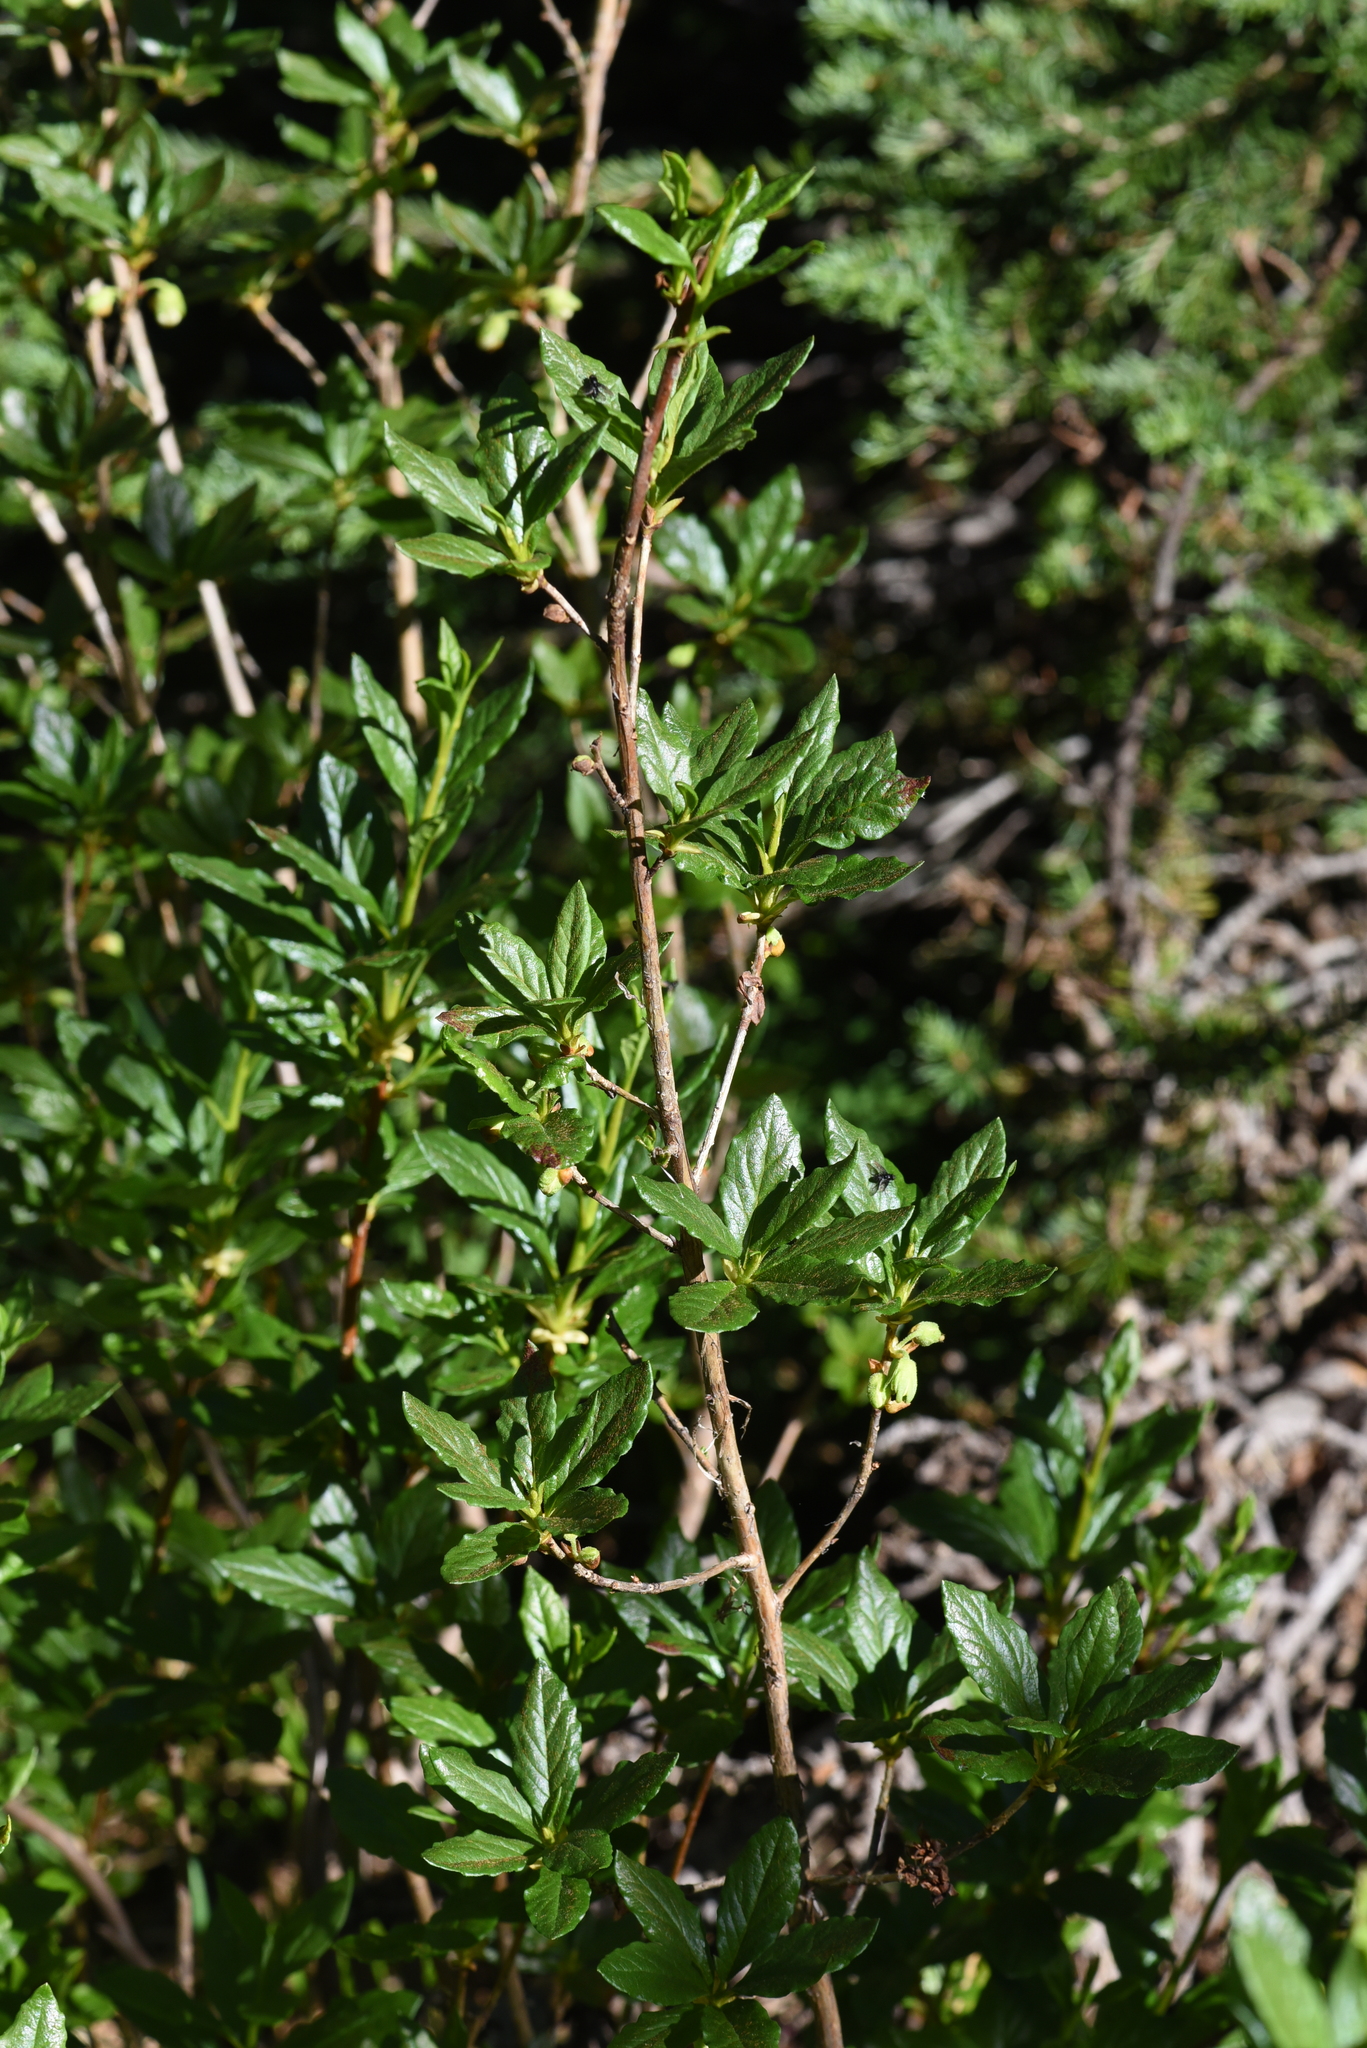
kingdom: Plantae
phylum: Tracheophyta
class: Magnoliopsida
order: Ericales
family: Ericaceae
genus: Rhododendron
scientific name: Rhododendron albiflorum
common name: White rhododendron
